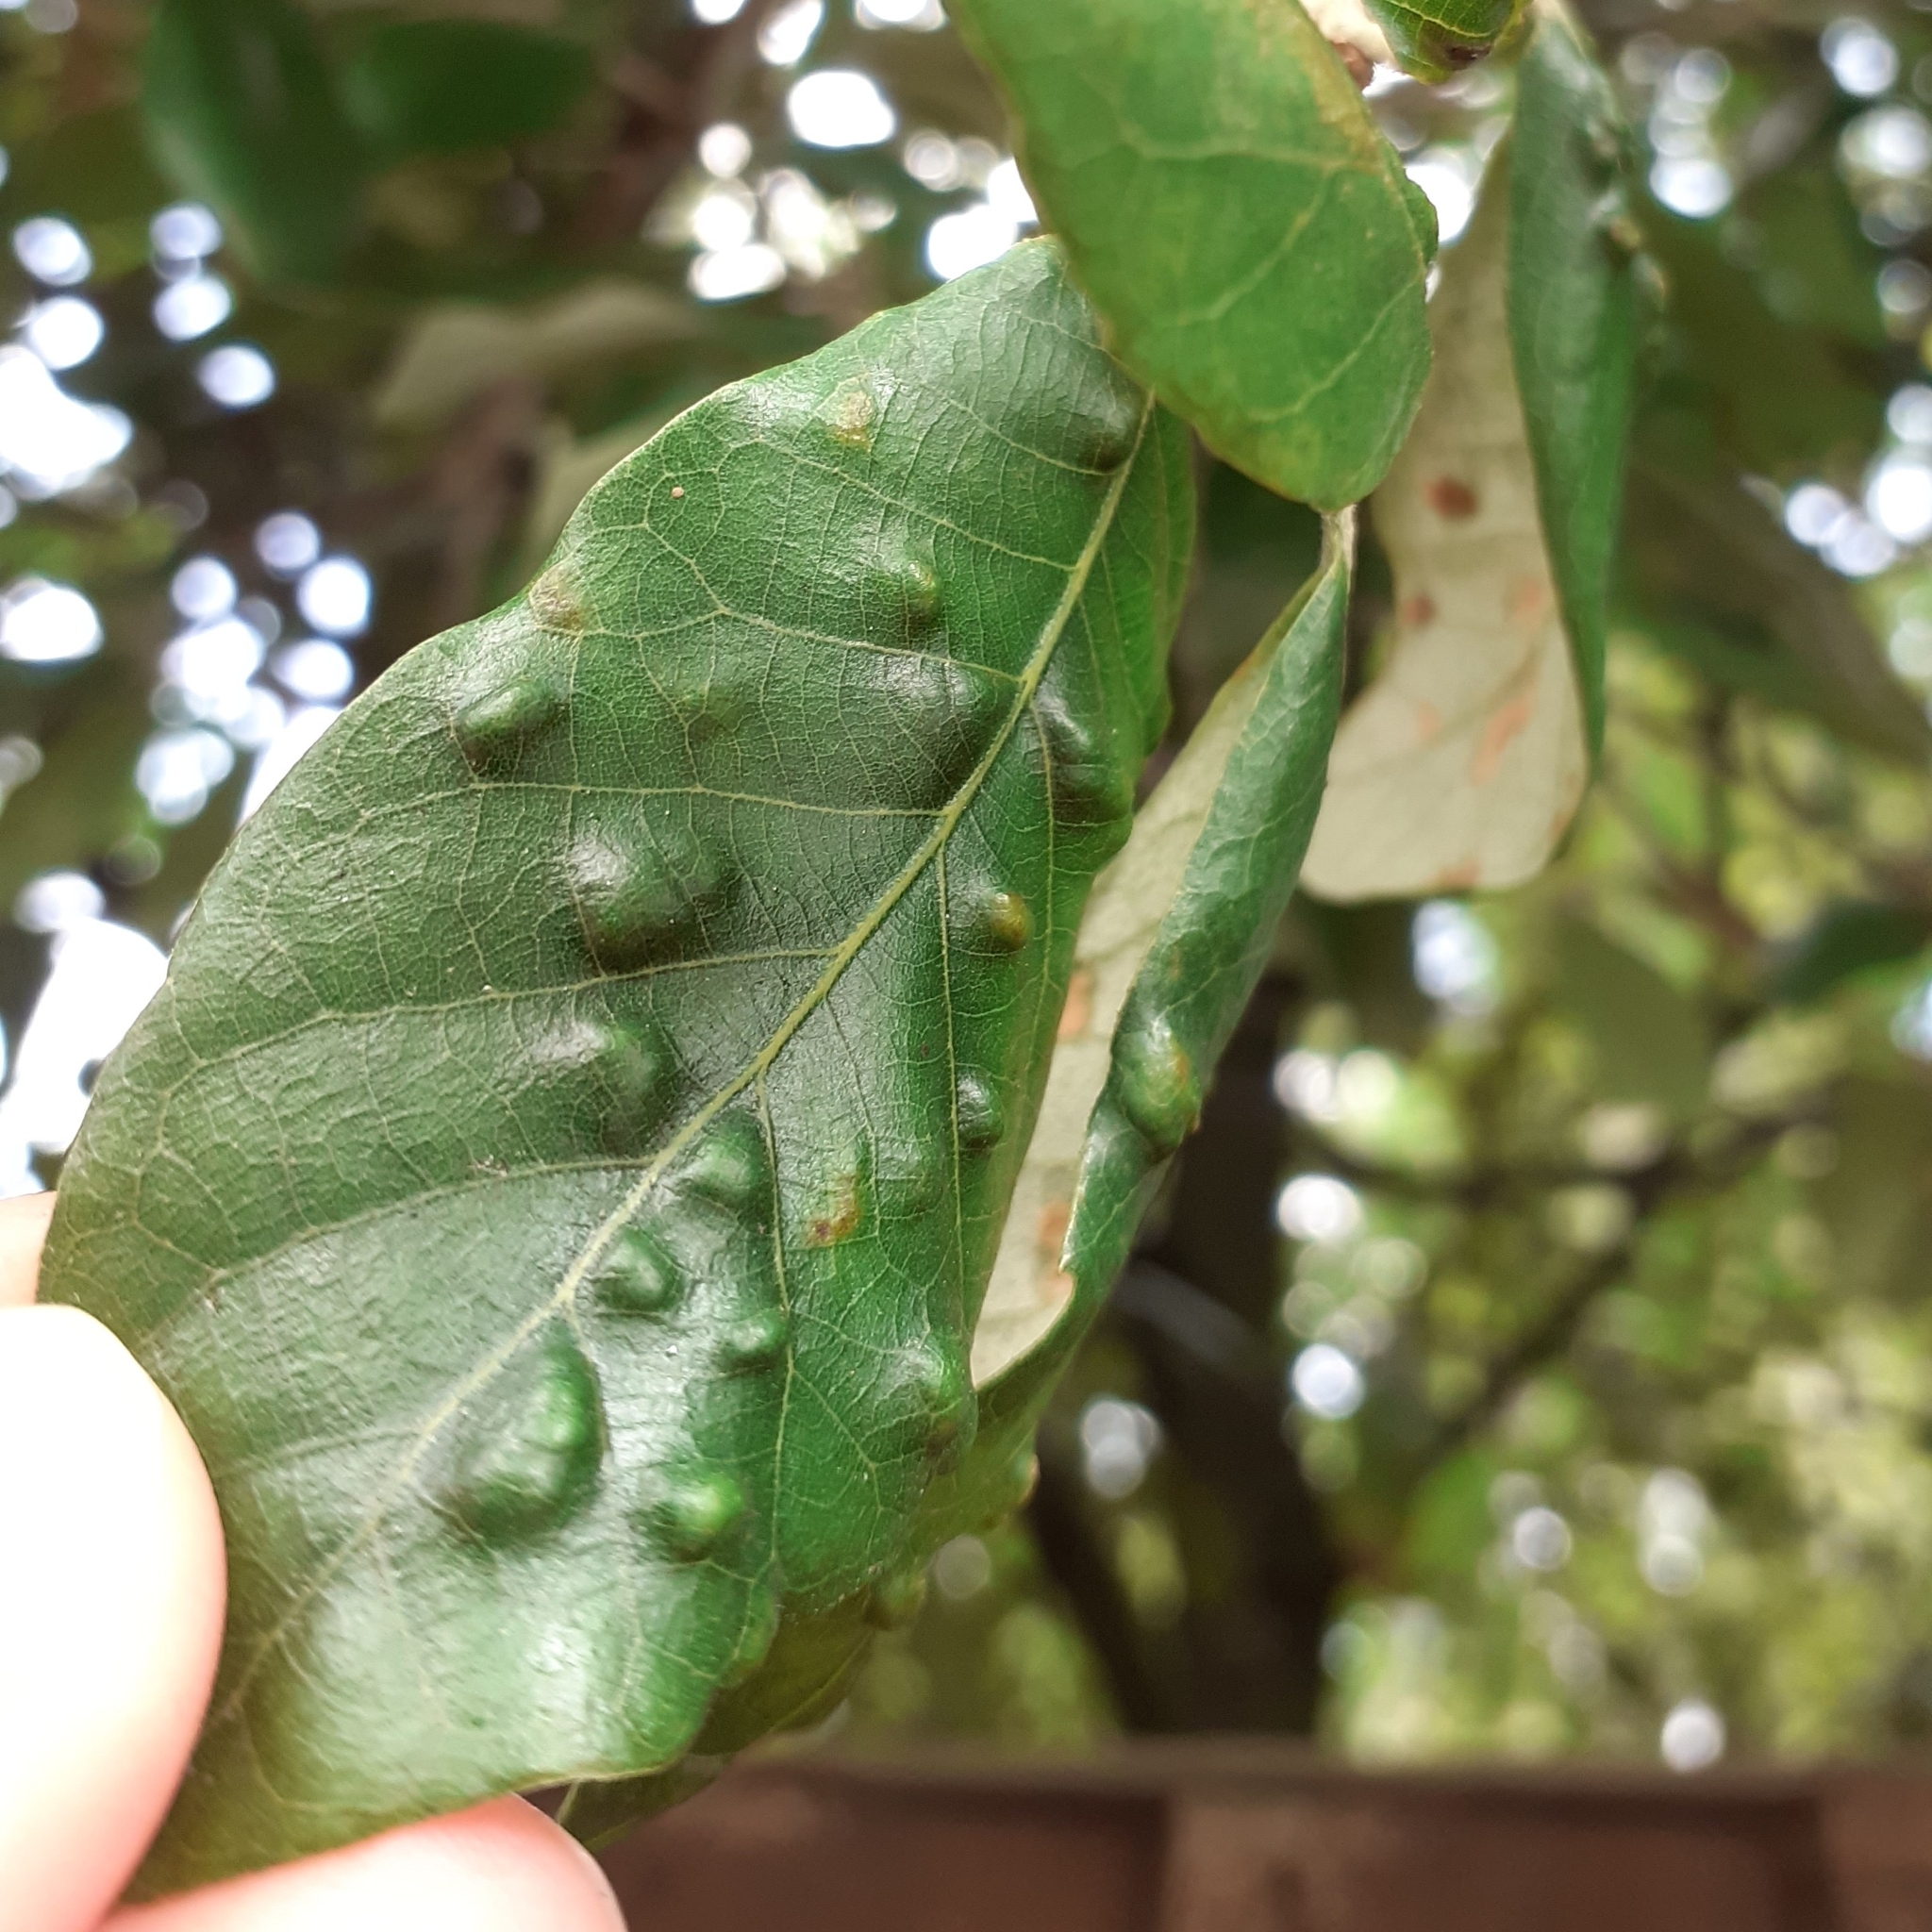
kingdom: Animalia
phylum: Arthropoda
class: Arachnida
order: Trombidiformes
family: Eriophyidae
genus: Aceria
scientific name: Aceria ilicis
